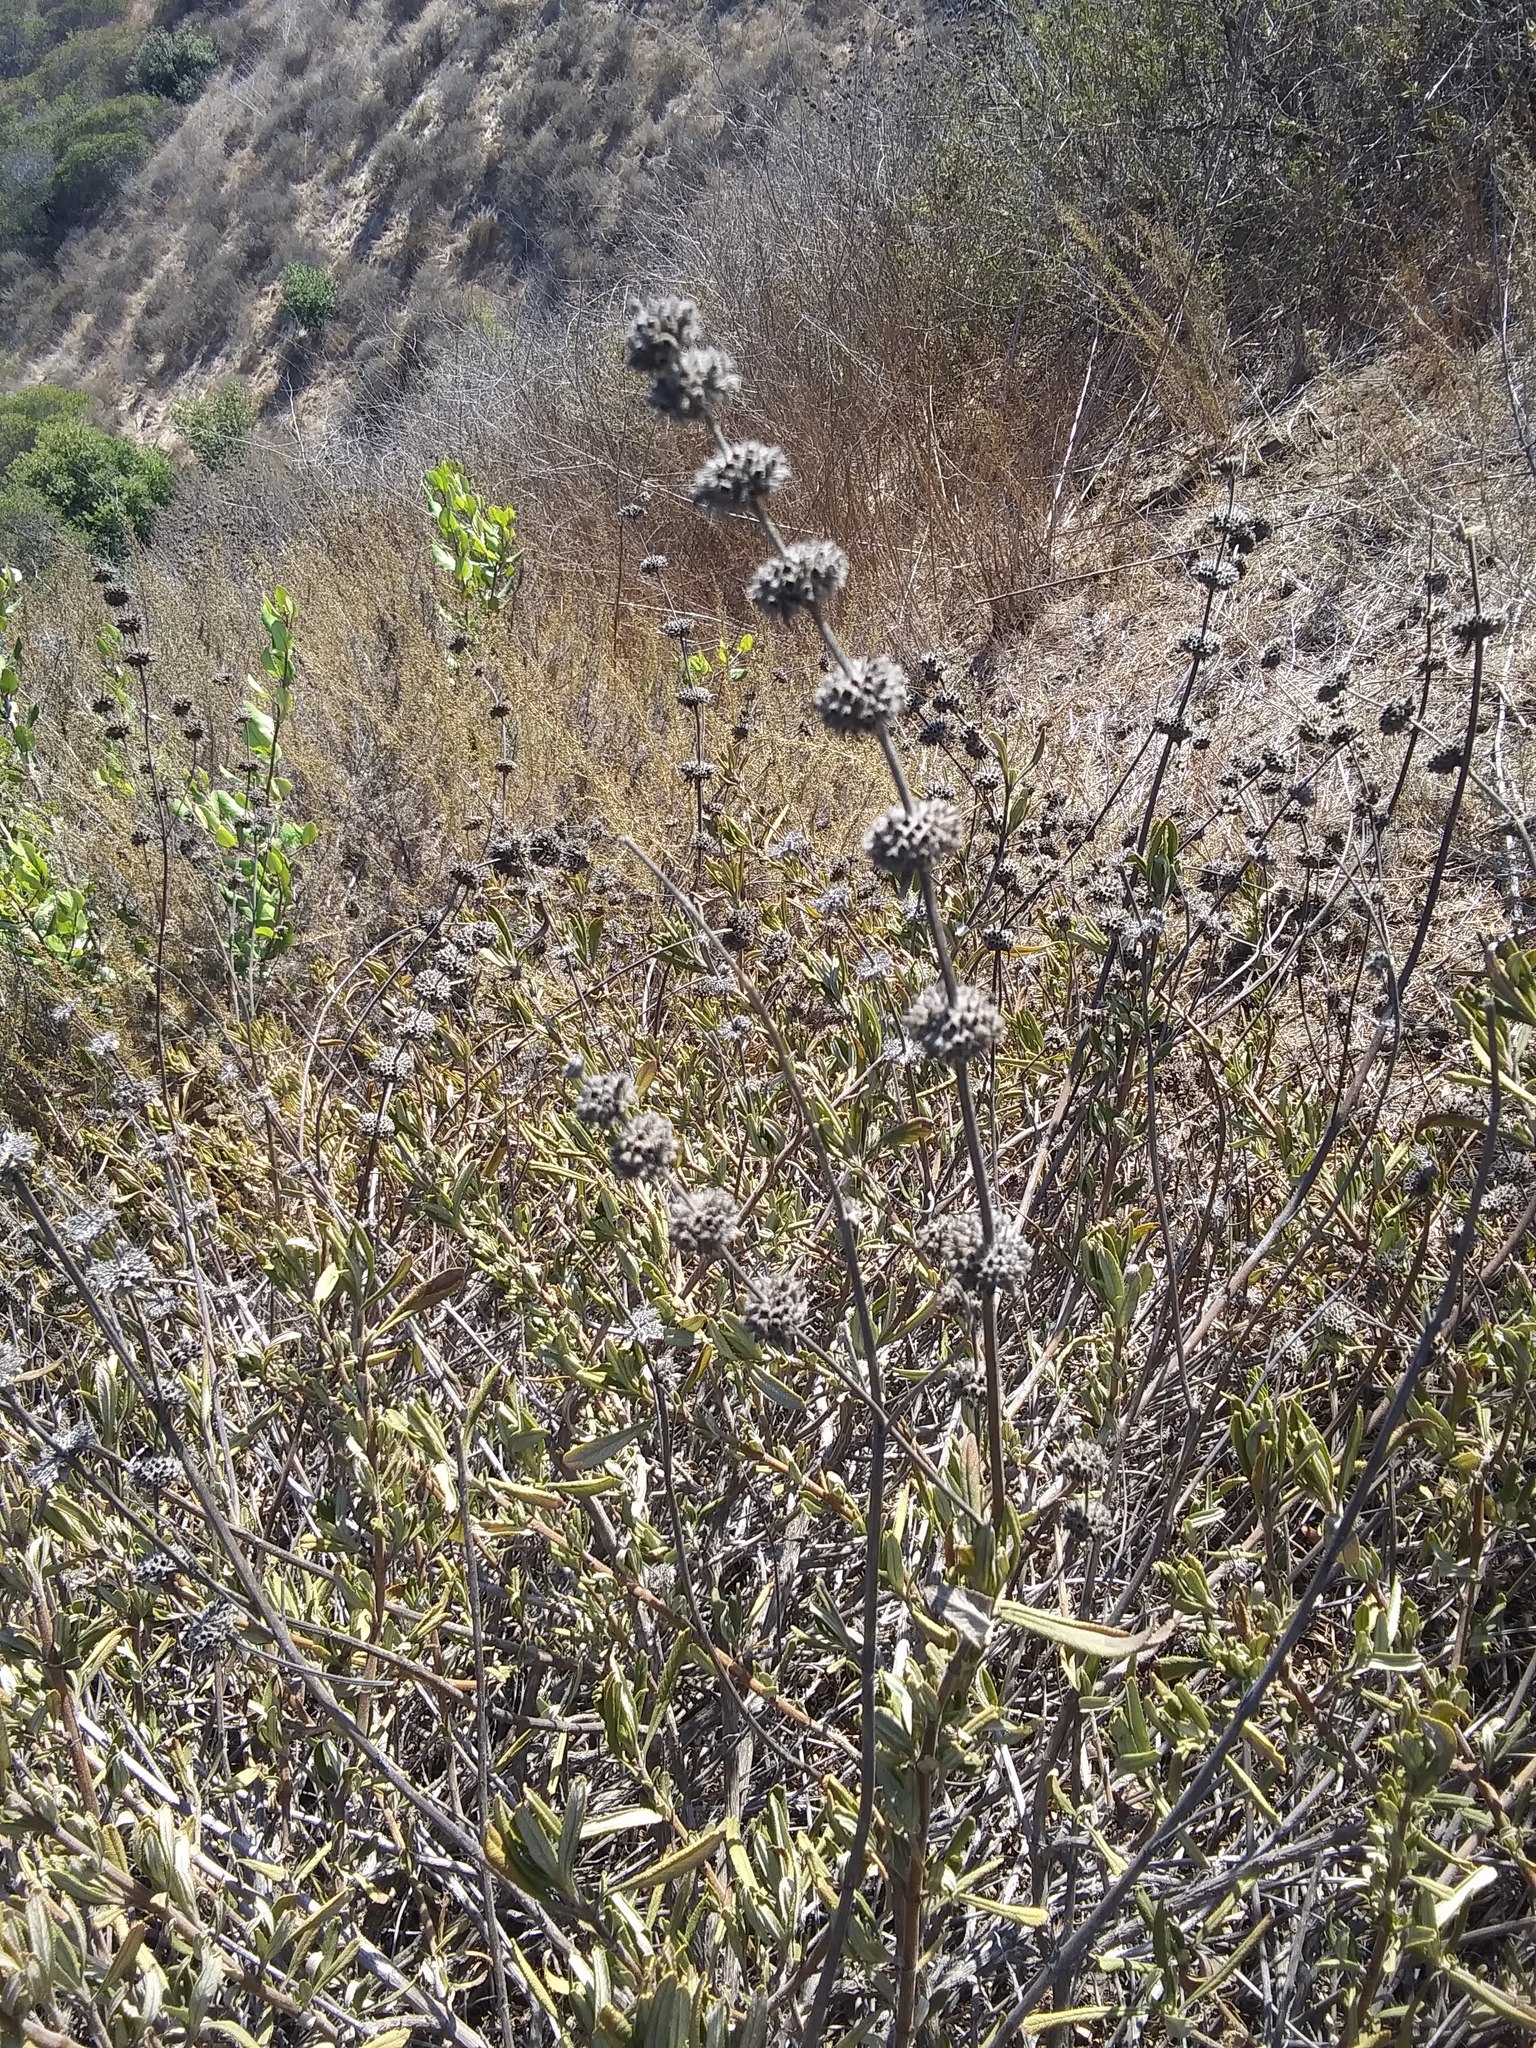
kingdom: Plantae
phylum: Tracheophyta
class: Magnoliopsida
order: Lamiales
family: Lamiaceae
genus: Salvia
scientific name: Salvia mellifera
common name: Black sage
